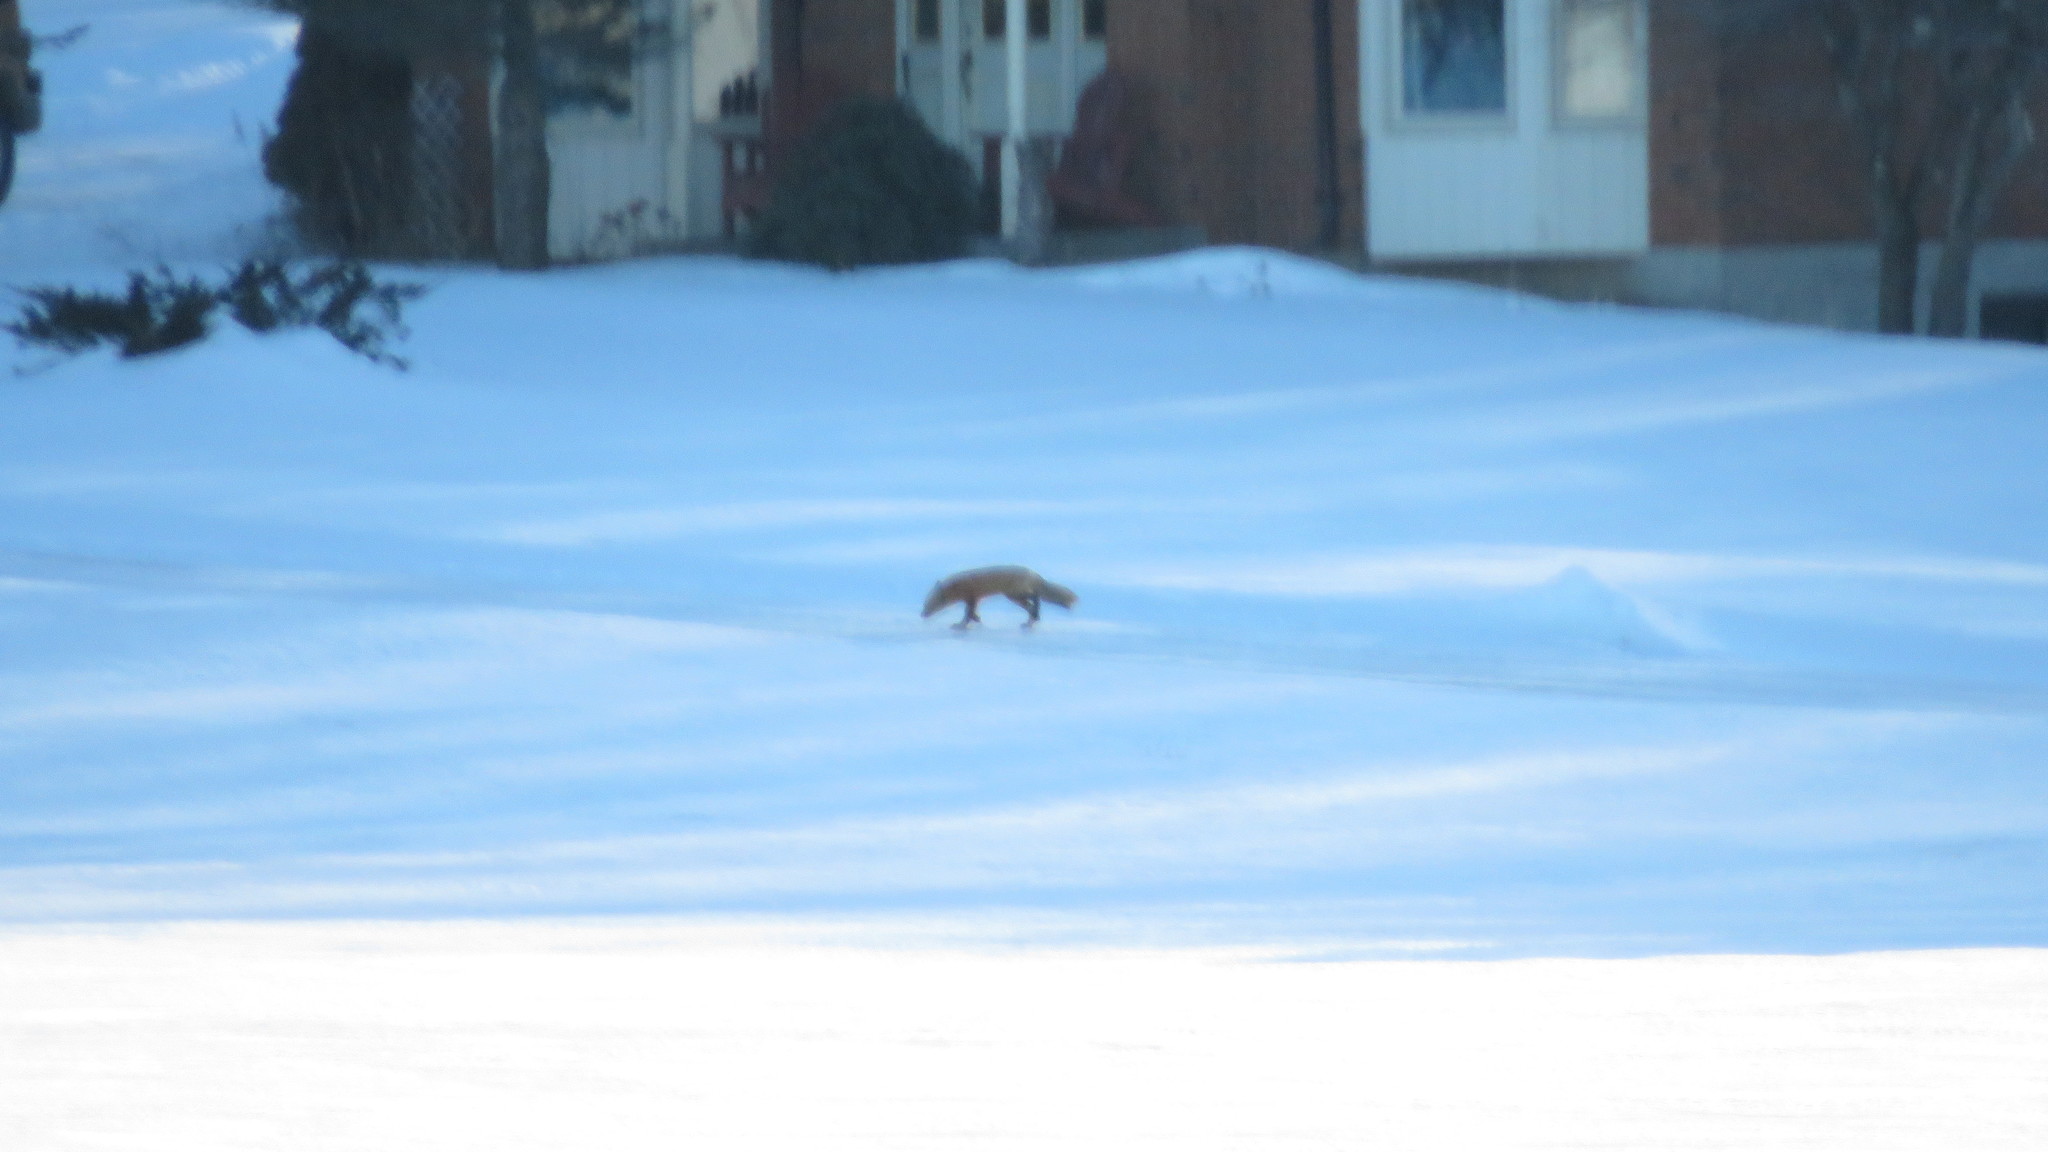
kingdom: Animalia
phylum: Chordata
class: Mammalia
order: Carnivora
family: Canidae
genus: Vulpes
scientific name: Vulpes vulpes
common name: Red fox
